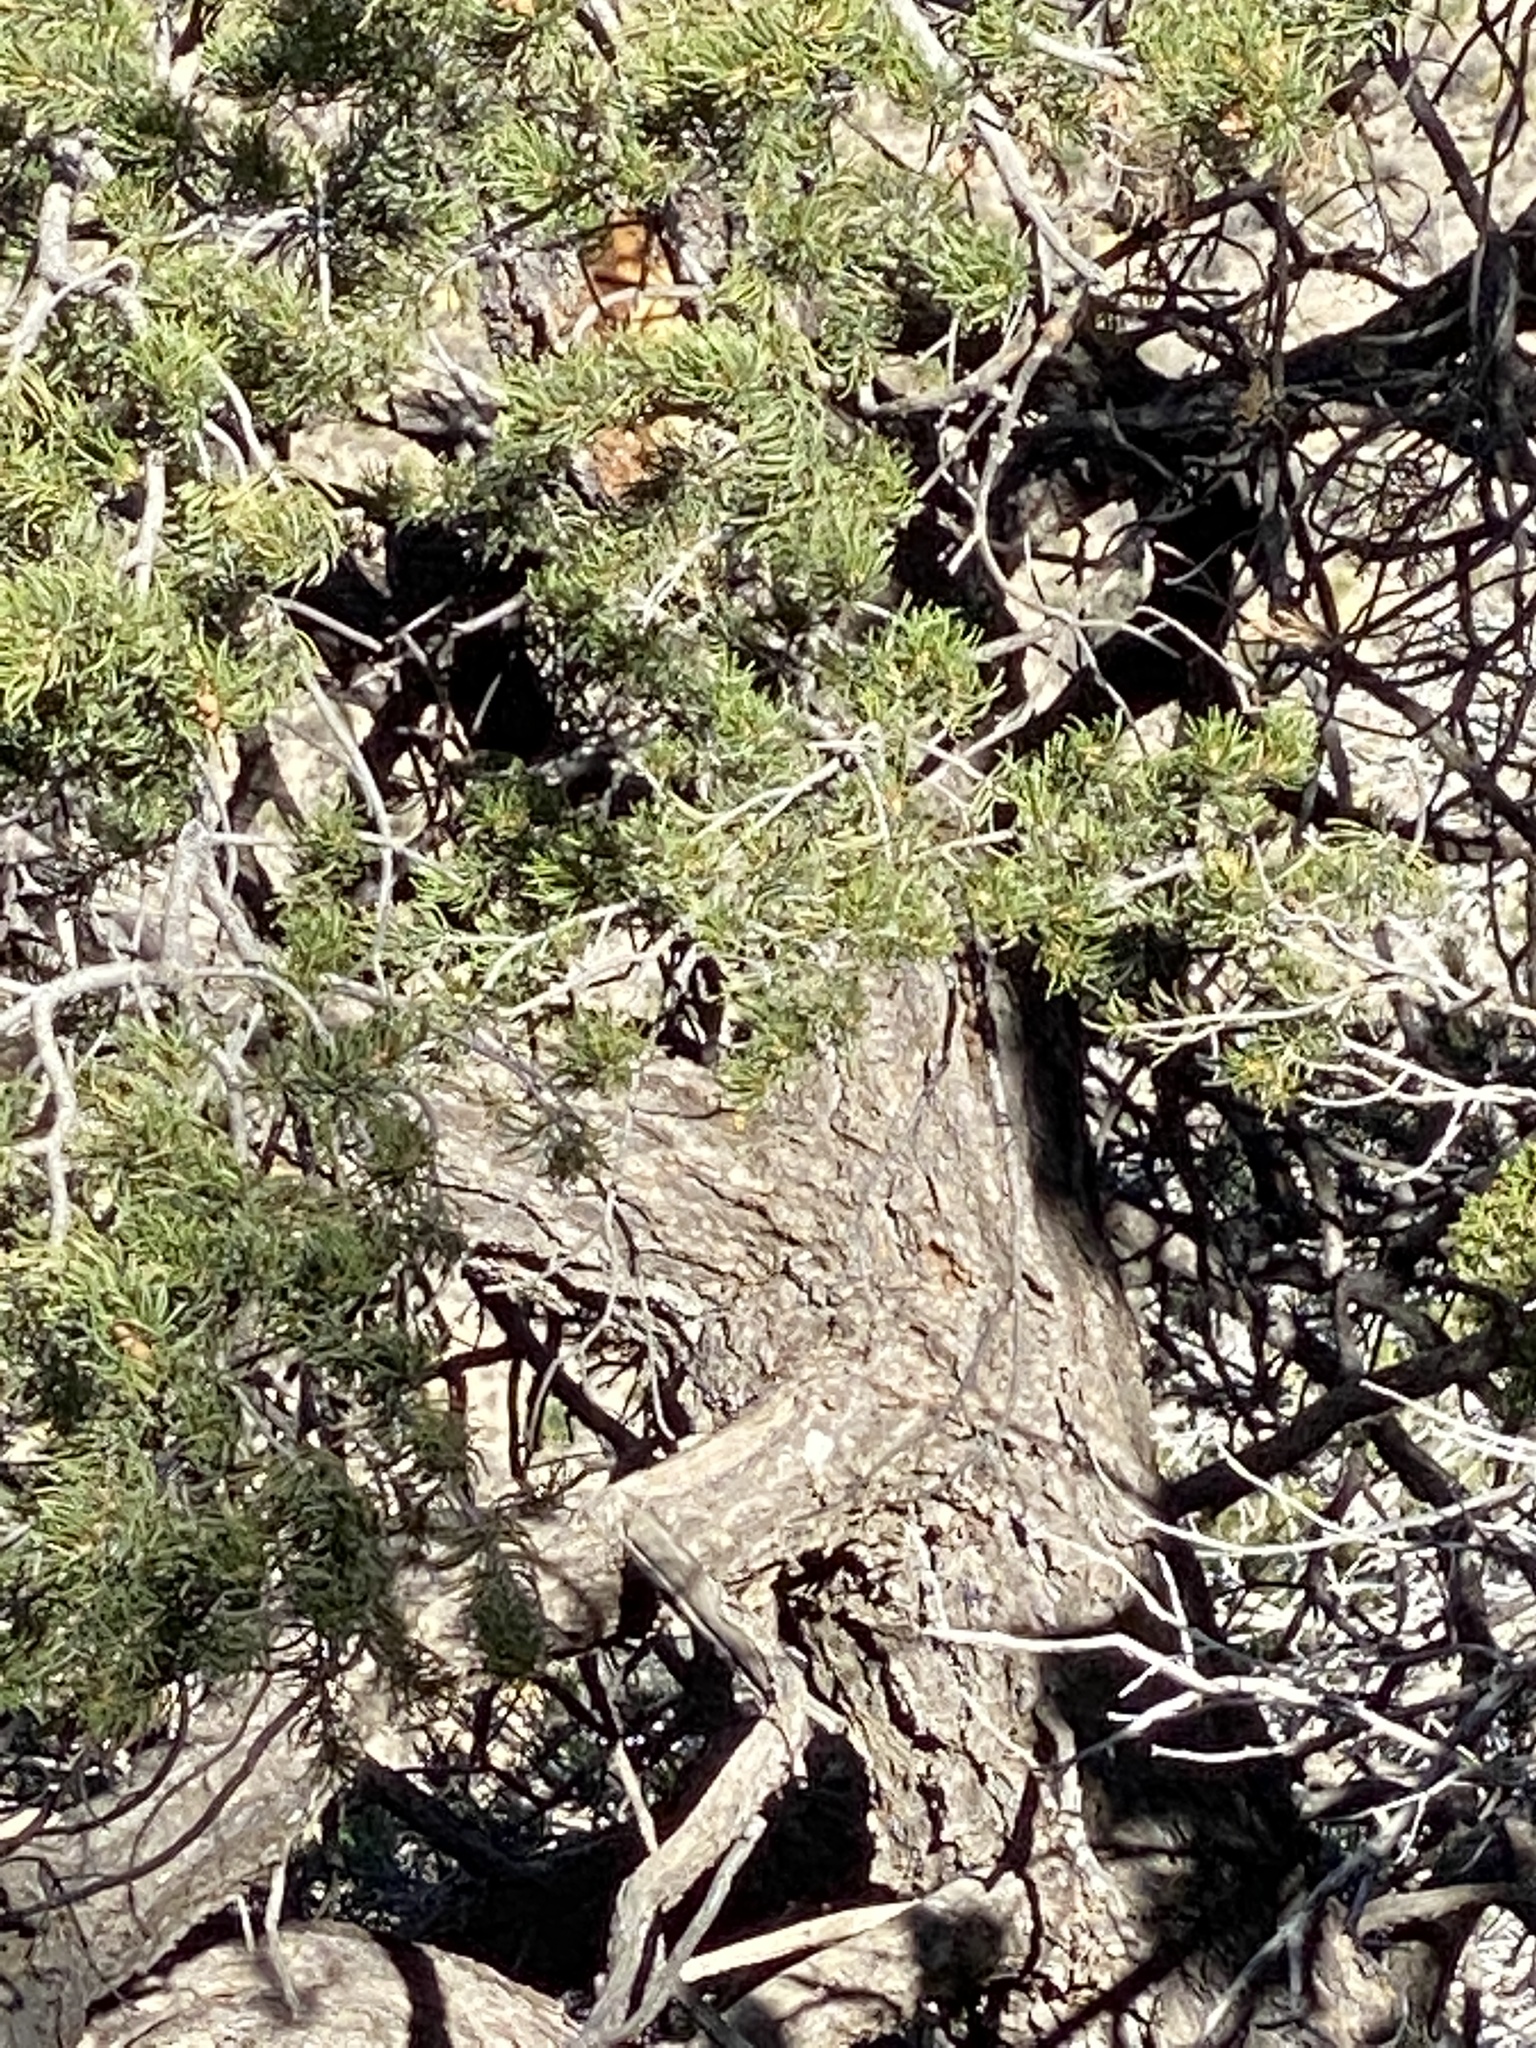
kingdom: Plantae
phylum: Tracheophyta
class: Pinopsida
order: Pinales
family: Pinaceae
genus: Pinus
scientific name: Pinus edulis
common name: Colorado pinyon
